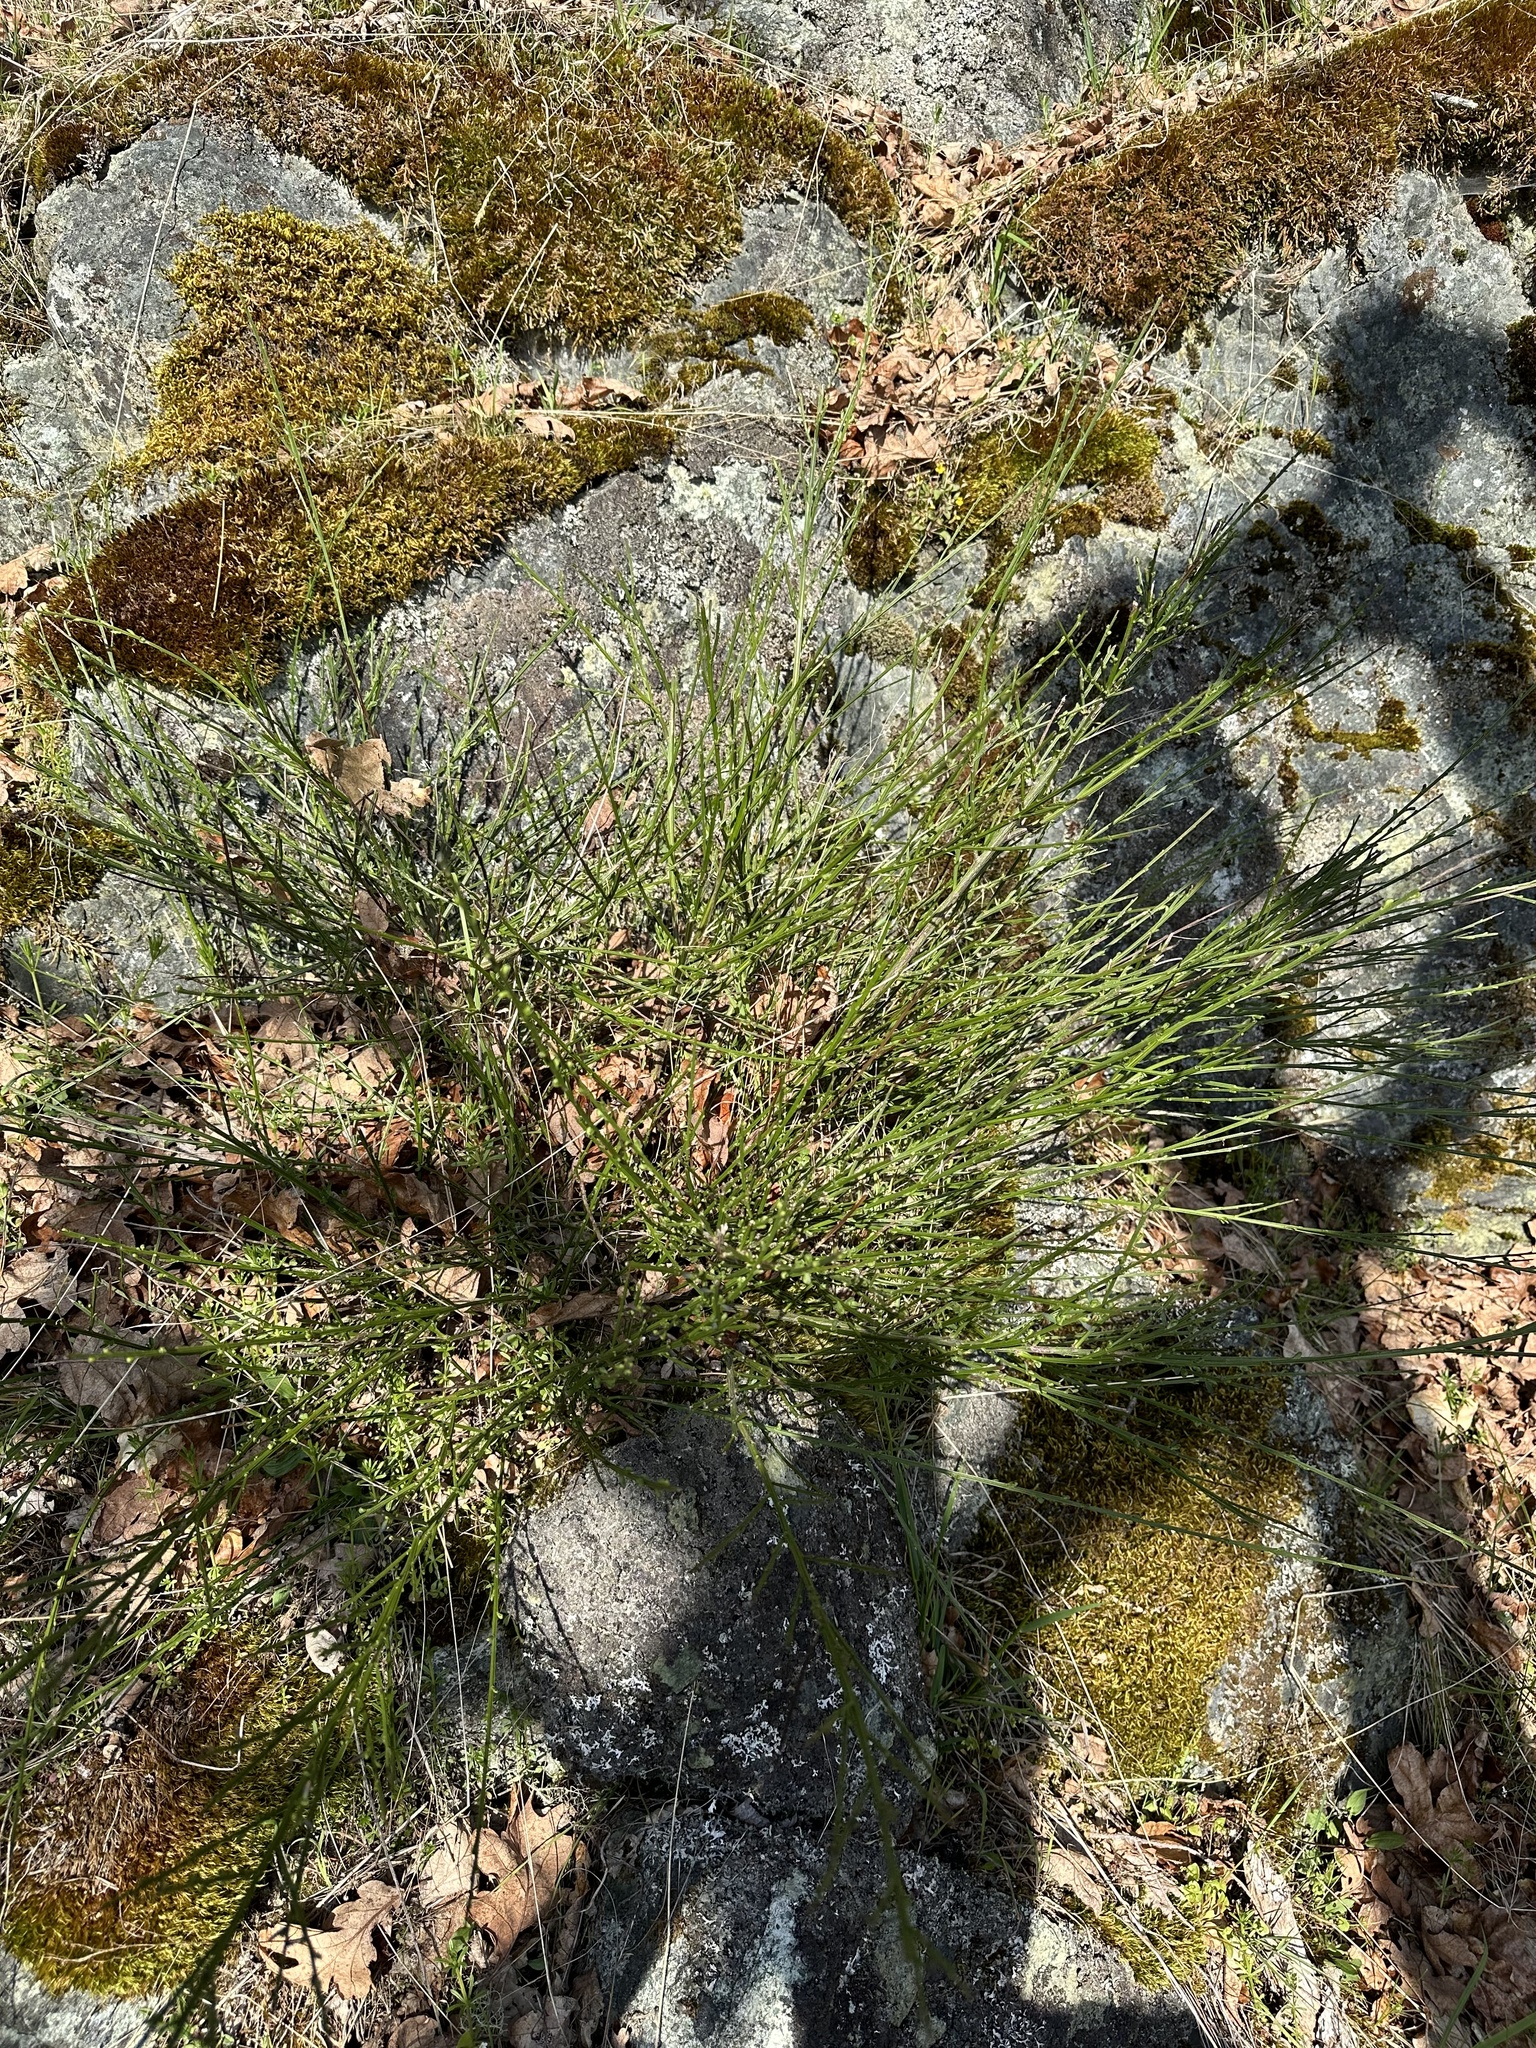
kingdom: Plantae
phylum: Tracheophyta
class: Magnoliopsida
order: Fabales
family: Fabaceae
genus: Cytisus
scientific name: Cytisus scoparius
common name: Scotch broom
